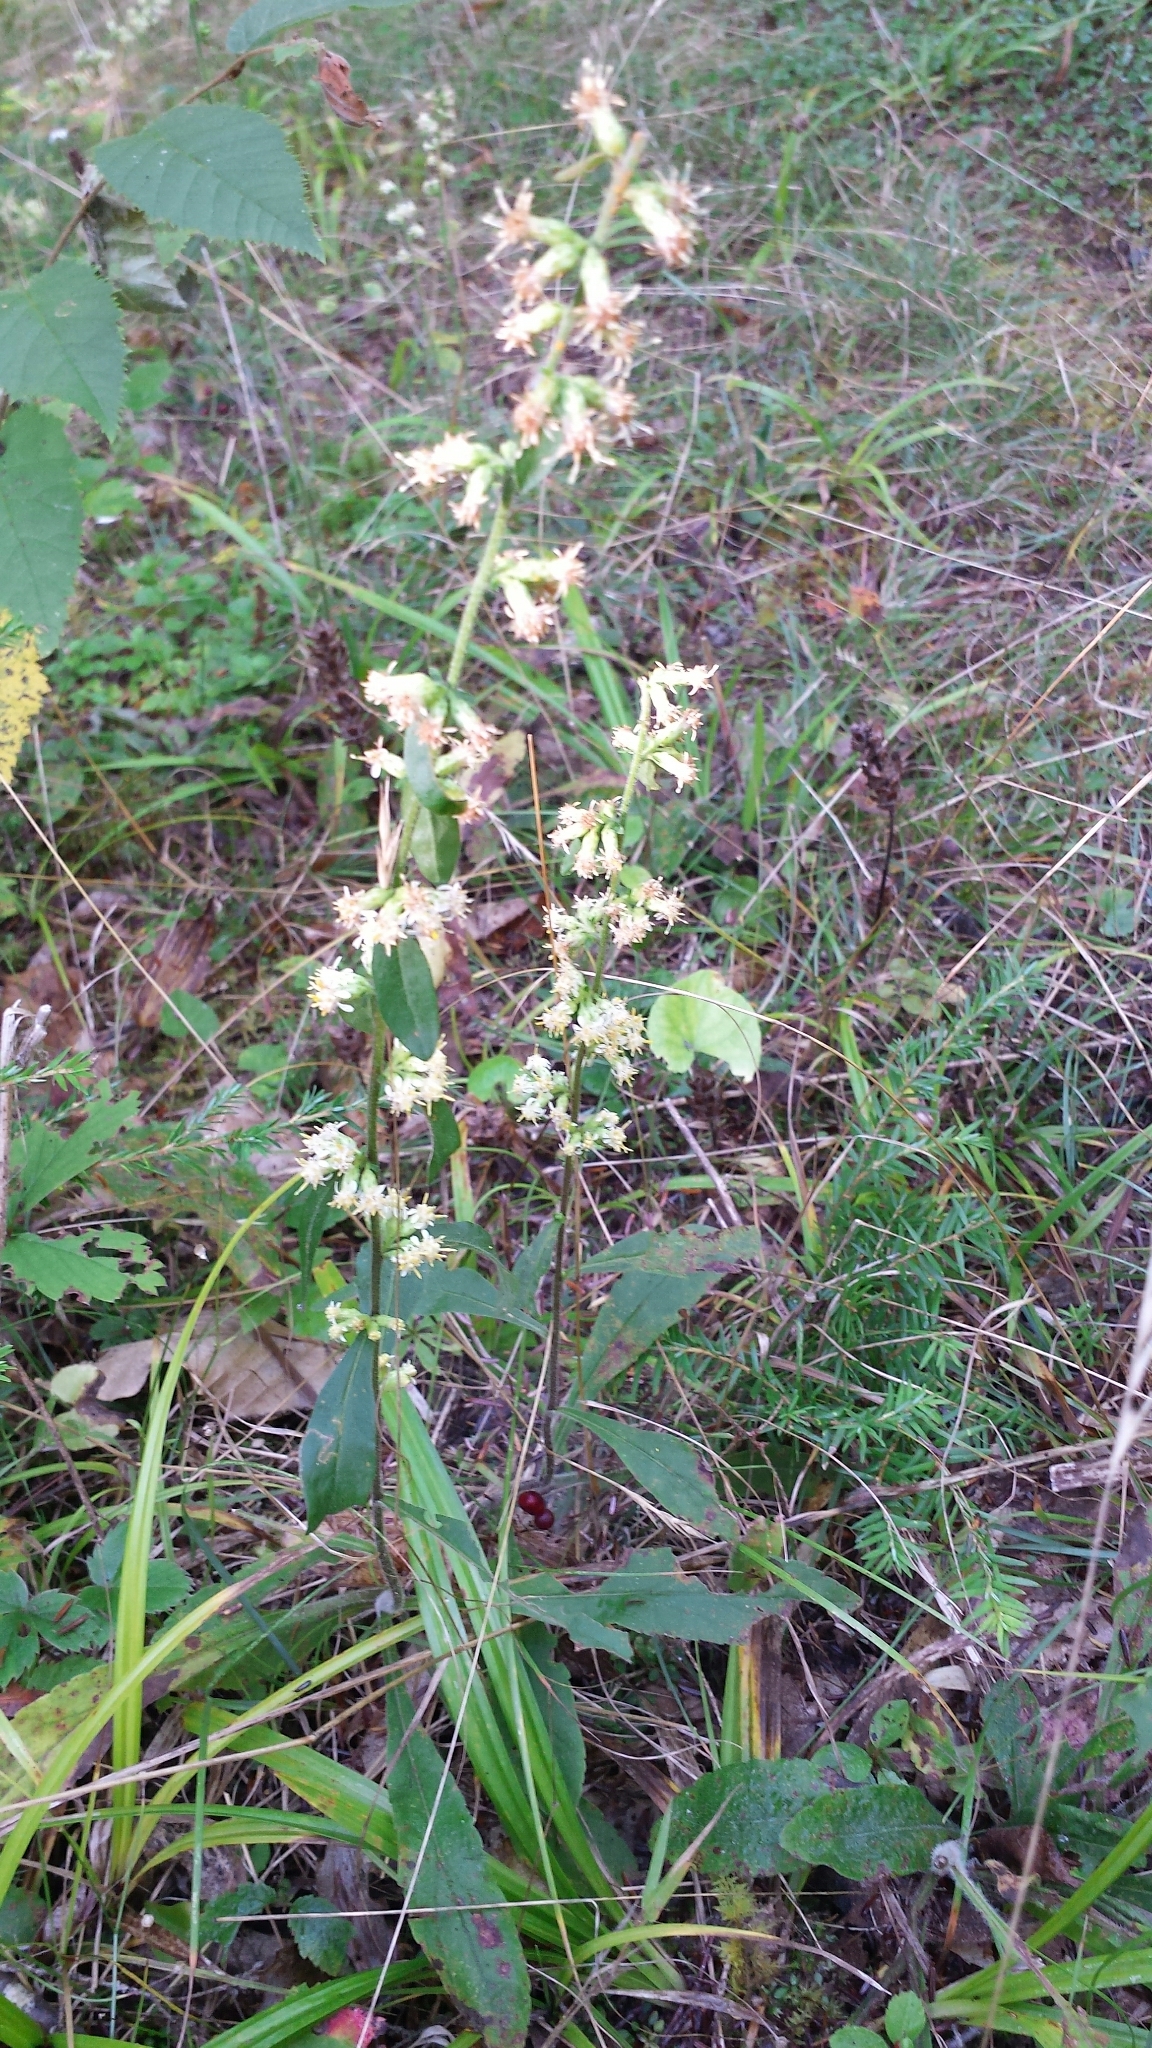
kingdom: Plantae
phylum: Tracheophyta
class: Magnoliopsida
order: Asterales
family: Asteraceae
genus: Solidago
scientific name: Solidago bicolor
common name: Silverrod
